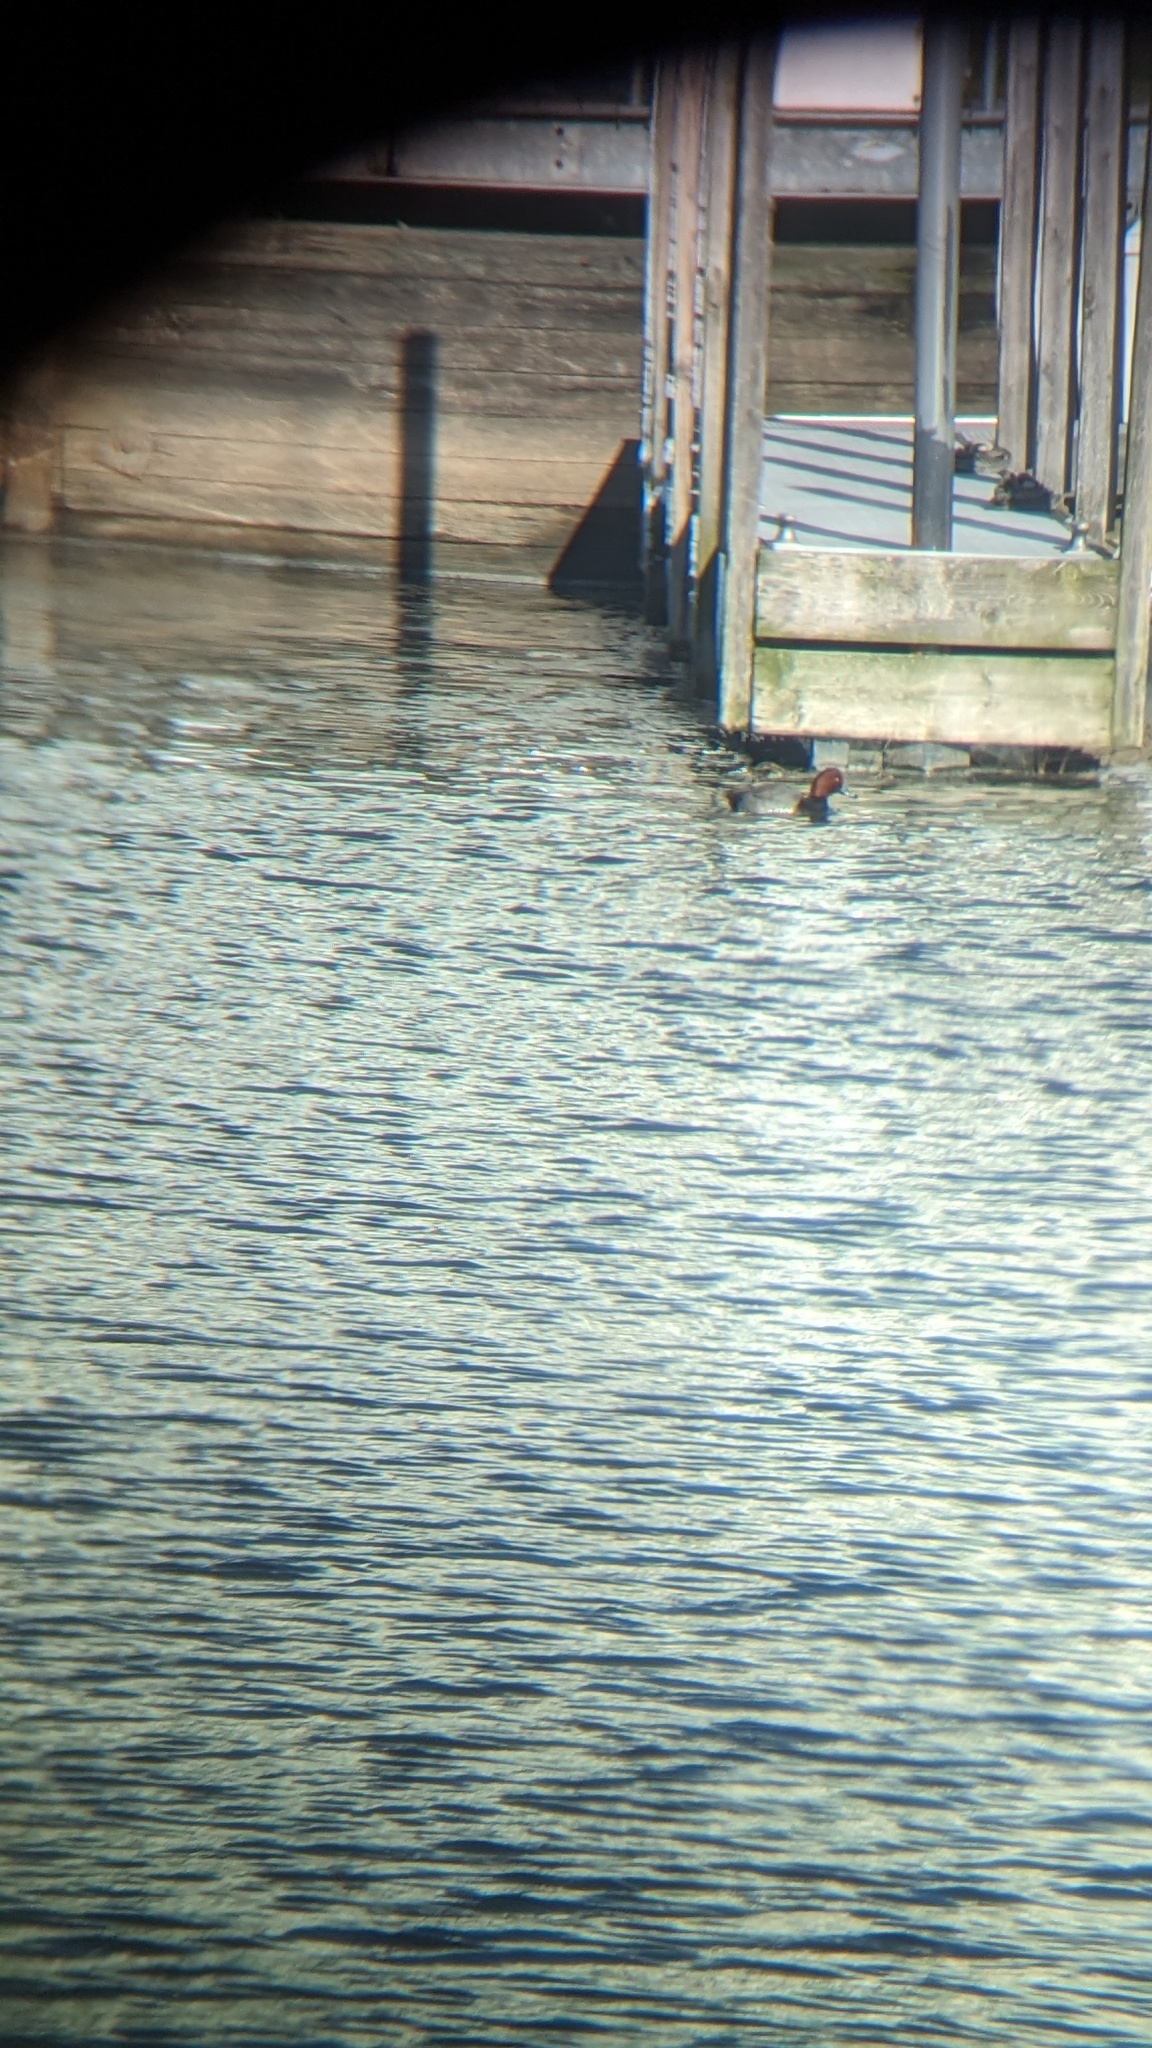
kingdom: Animalia
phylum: Chordata
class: Aves
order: Anseriformes
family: Anatidae
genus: Aythya
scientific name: Aythya americana
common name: Redhead
